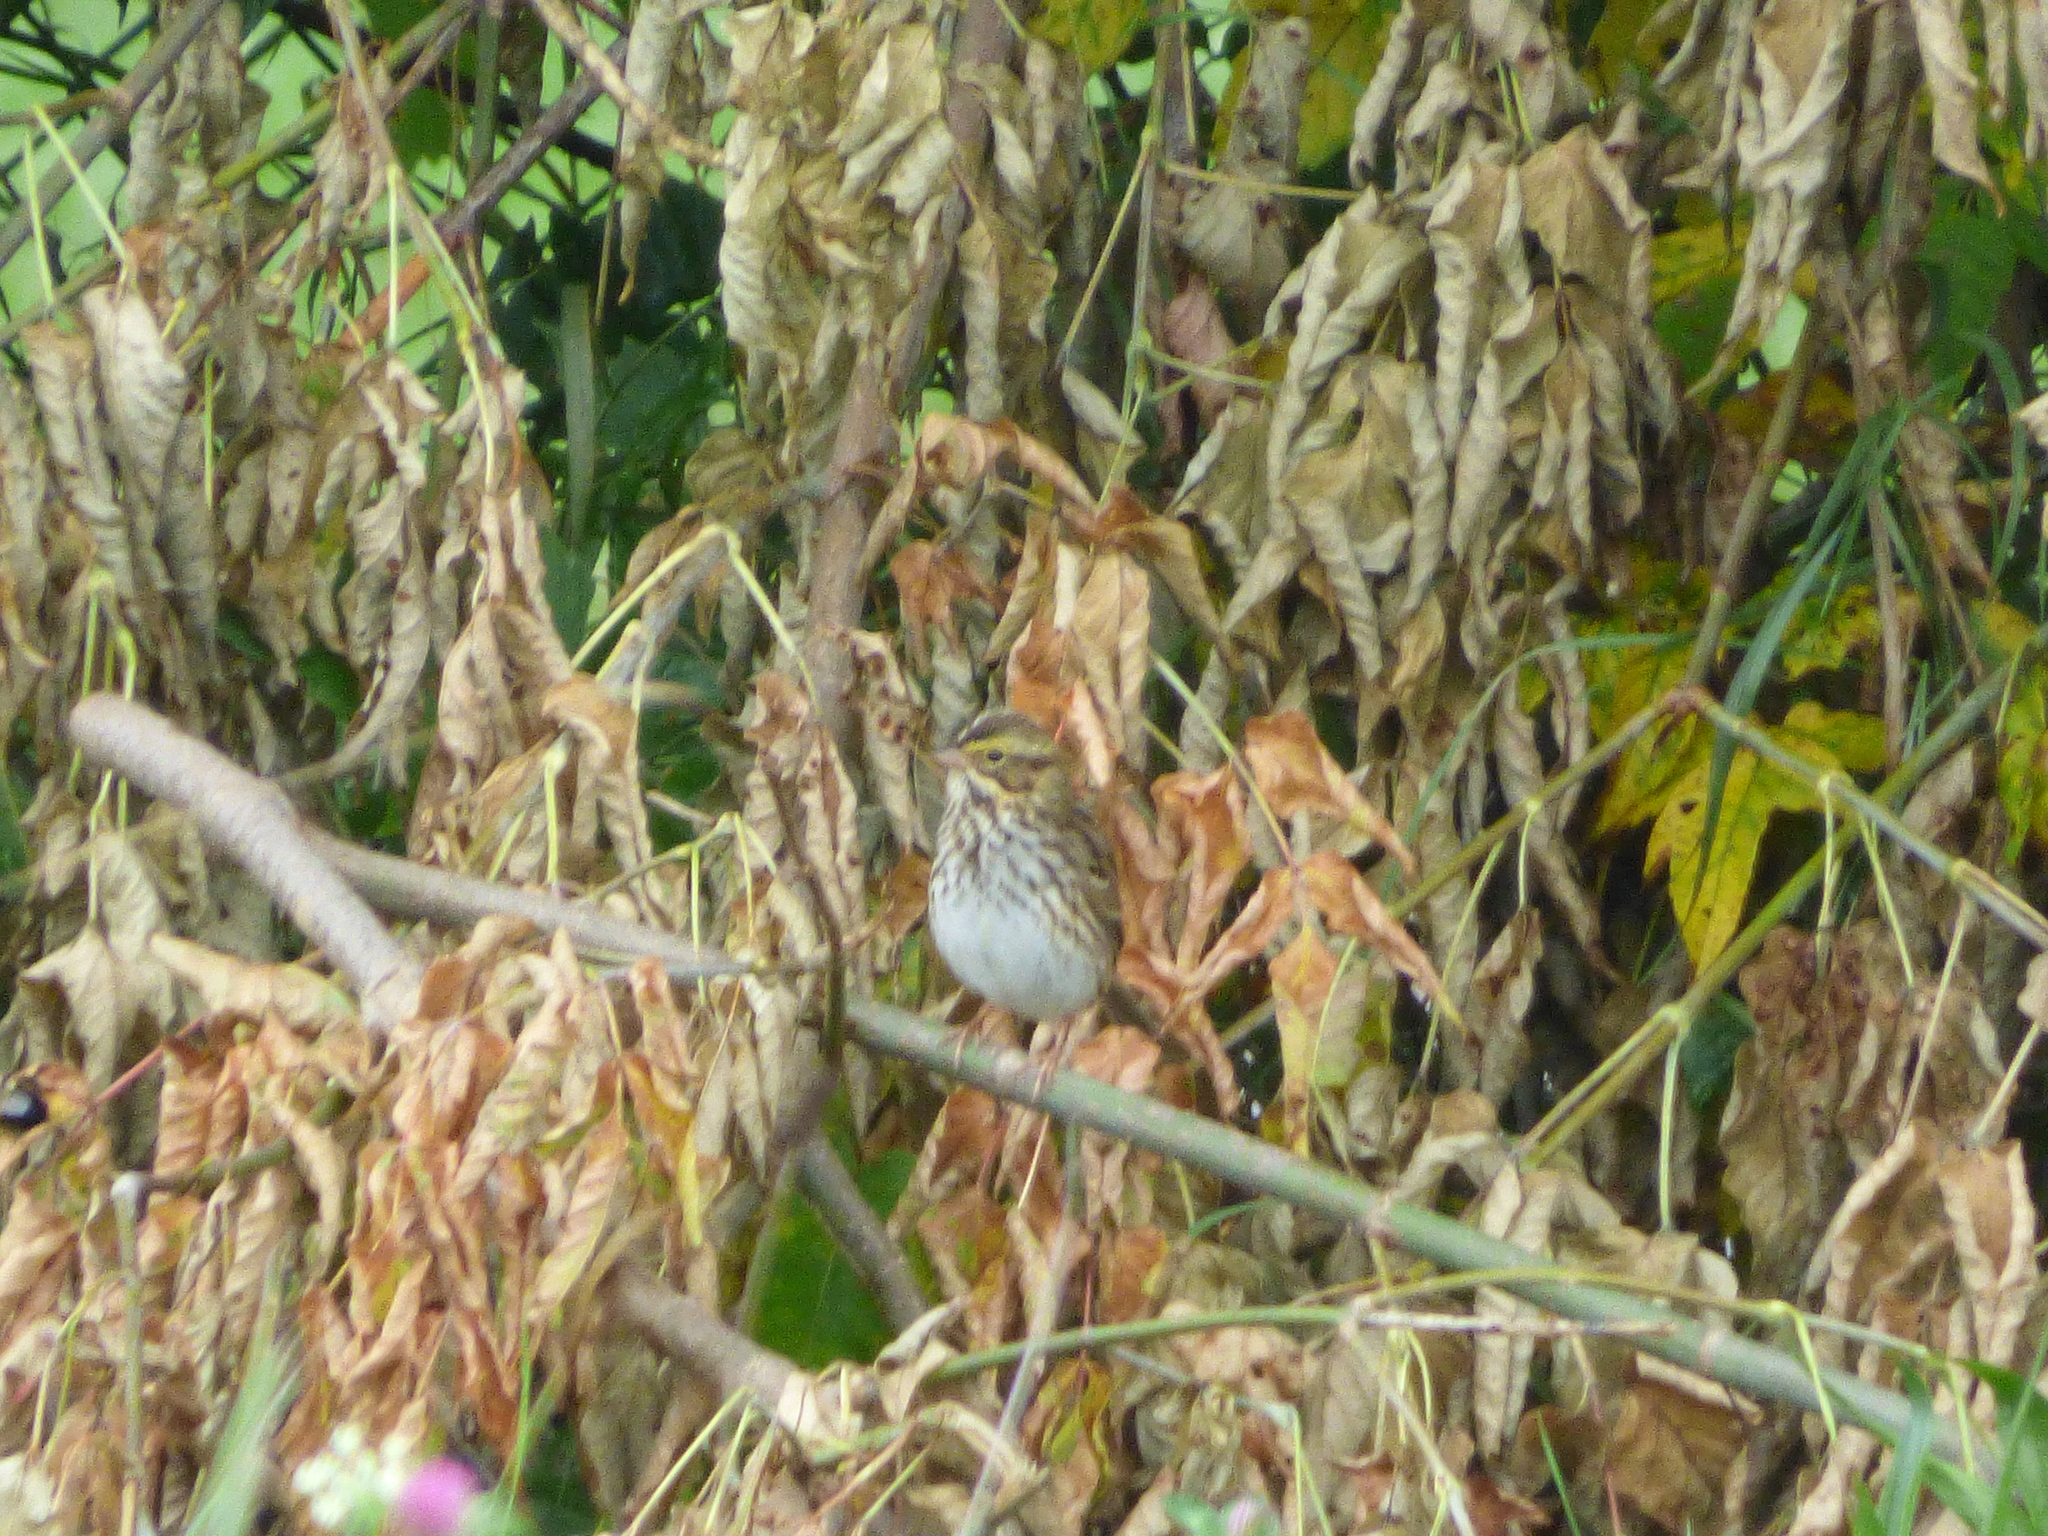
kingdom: Animalia
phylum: Chordata
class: Aves
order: Passeriformes
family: Passerellidae
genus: Passerculus
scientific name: Passerculus sandwichensis
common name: Savannah sparrow
